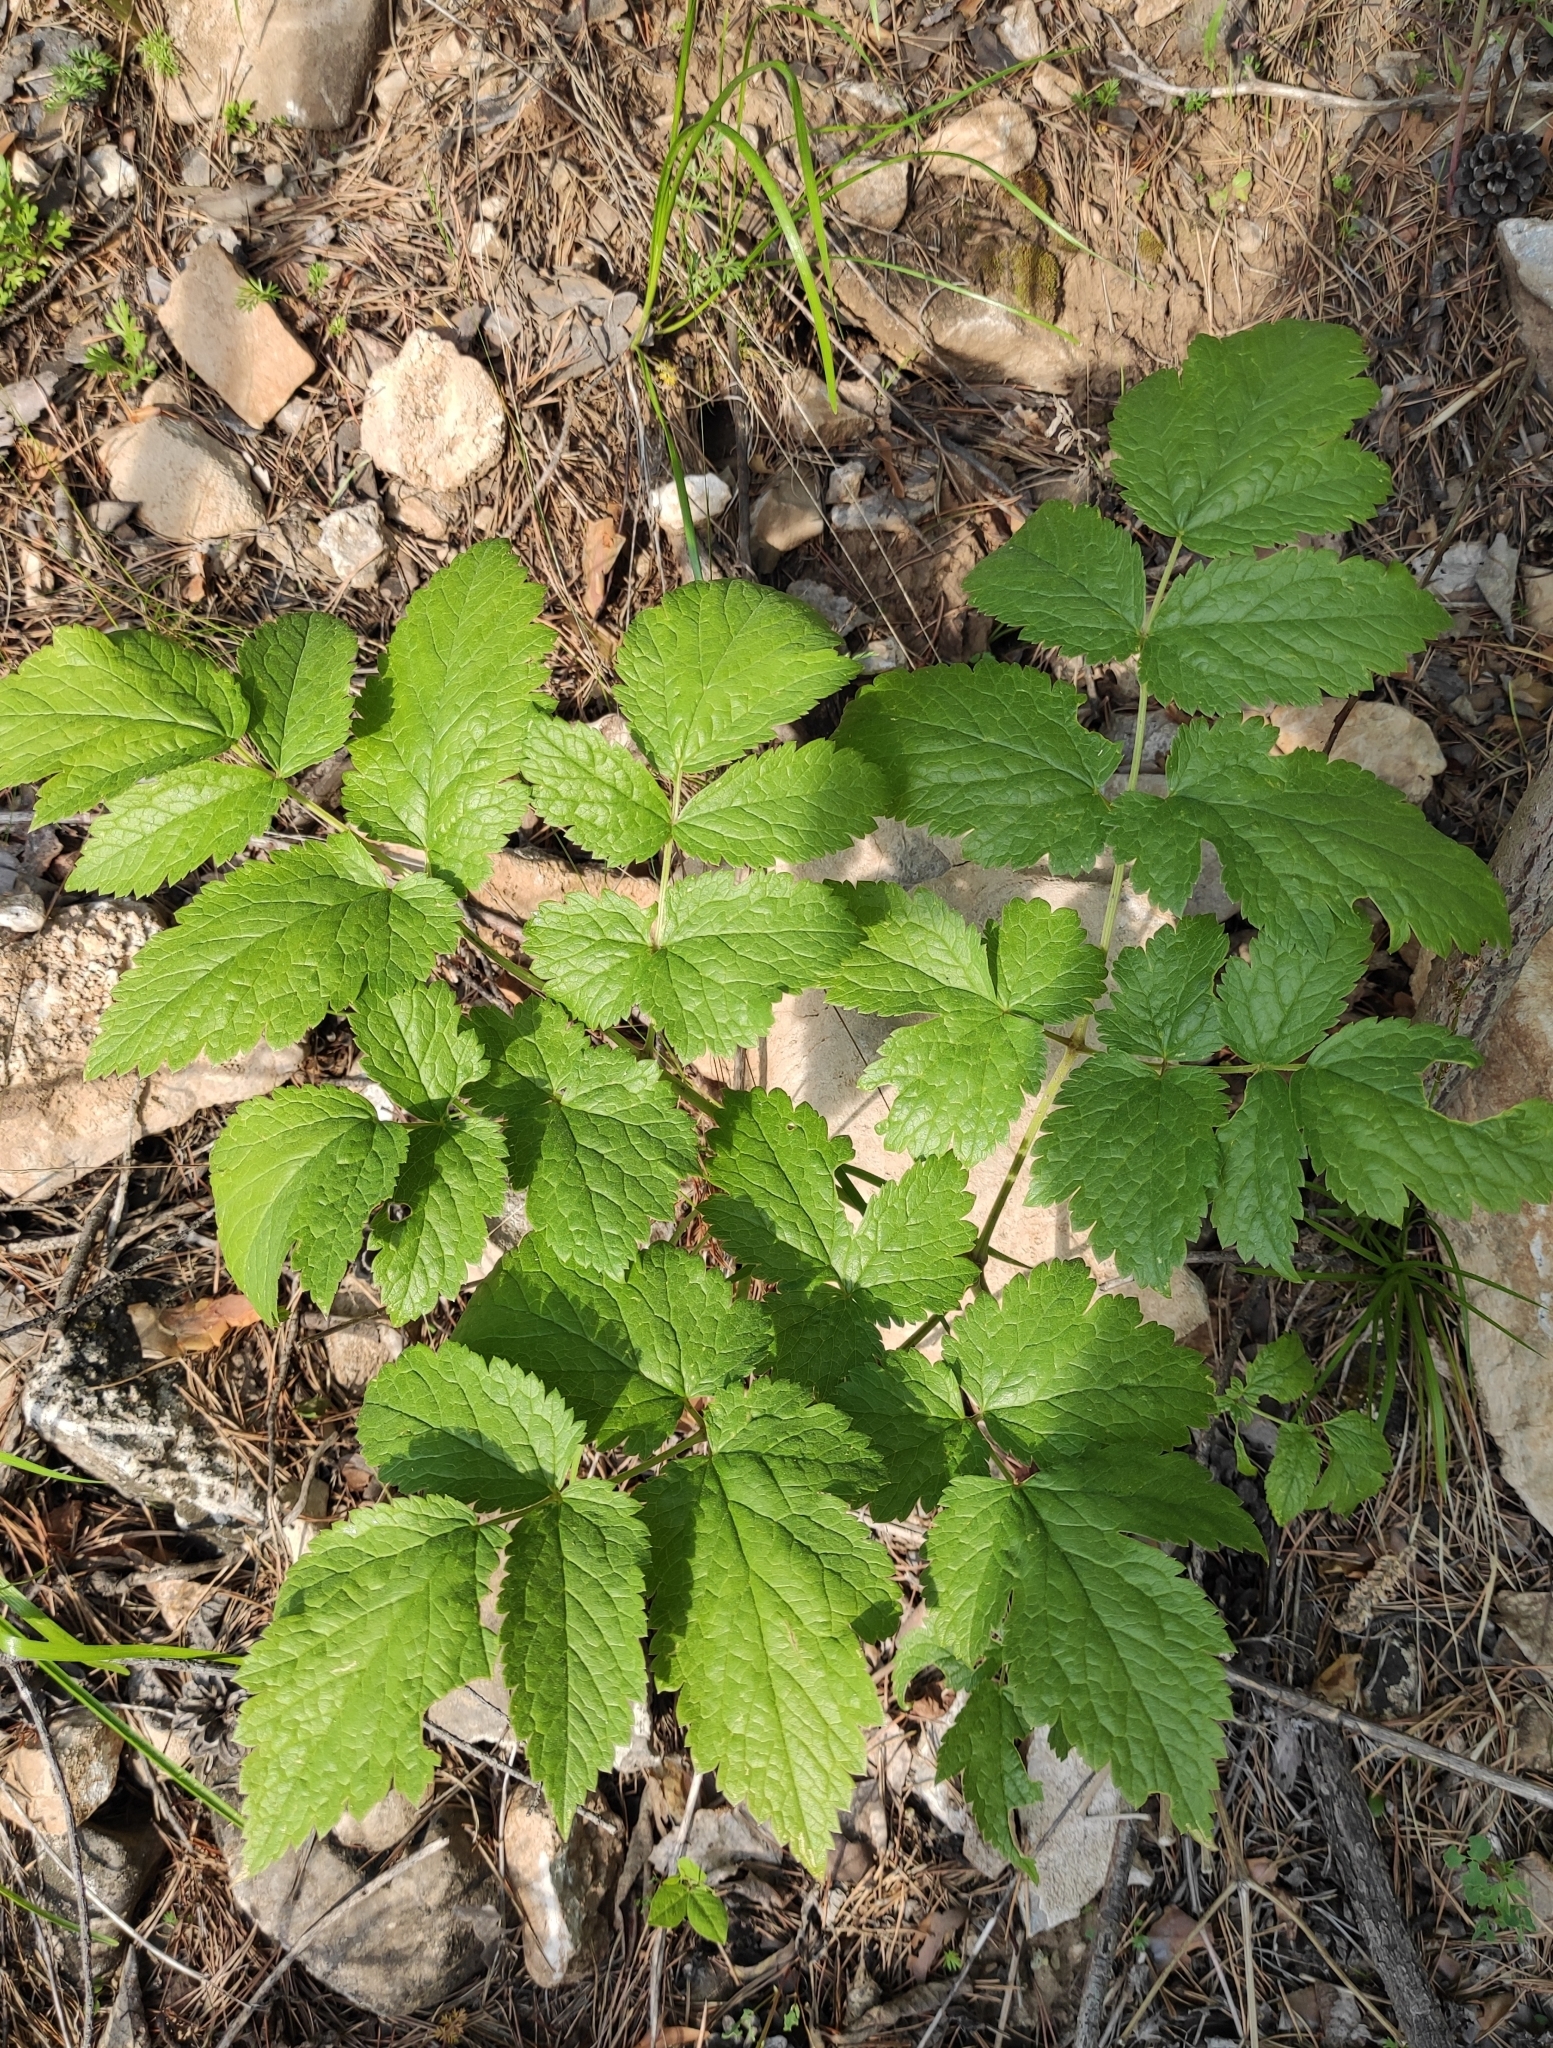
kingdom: Plantae
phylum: Tracheophyta
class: Magnoliopsida
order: Ranunculales
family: Ranunculaceae
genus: Actaea
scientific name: Actaea cimicifuga
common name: Chinese cimicifuga
